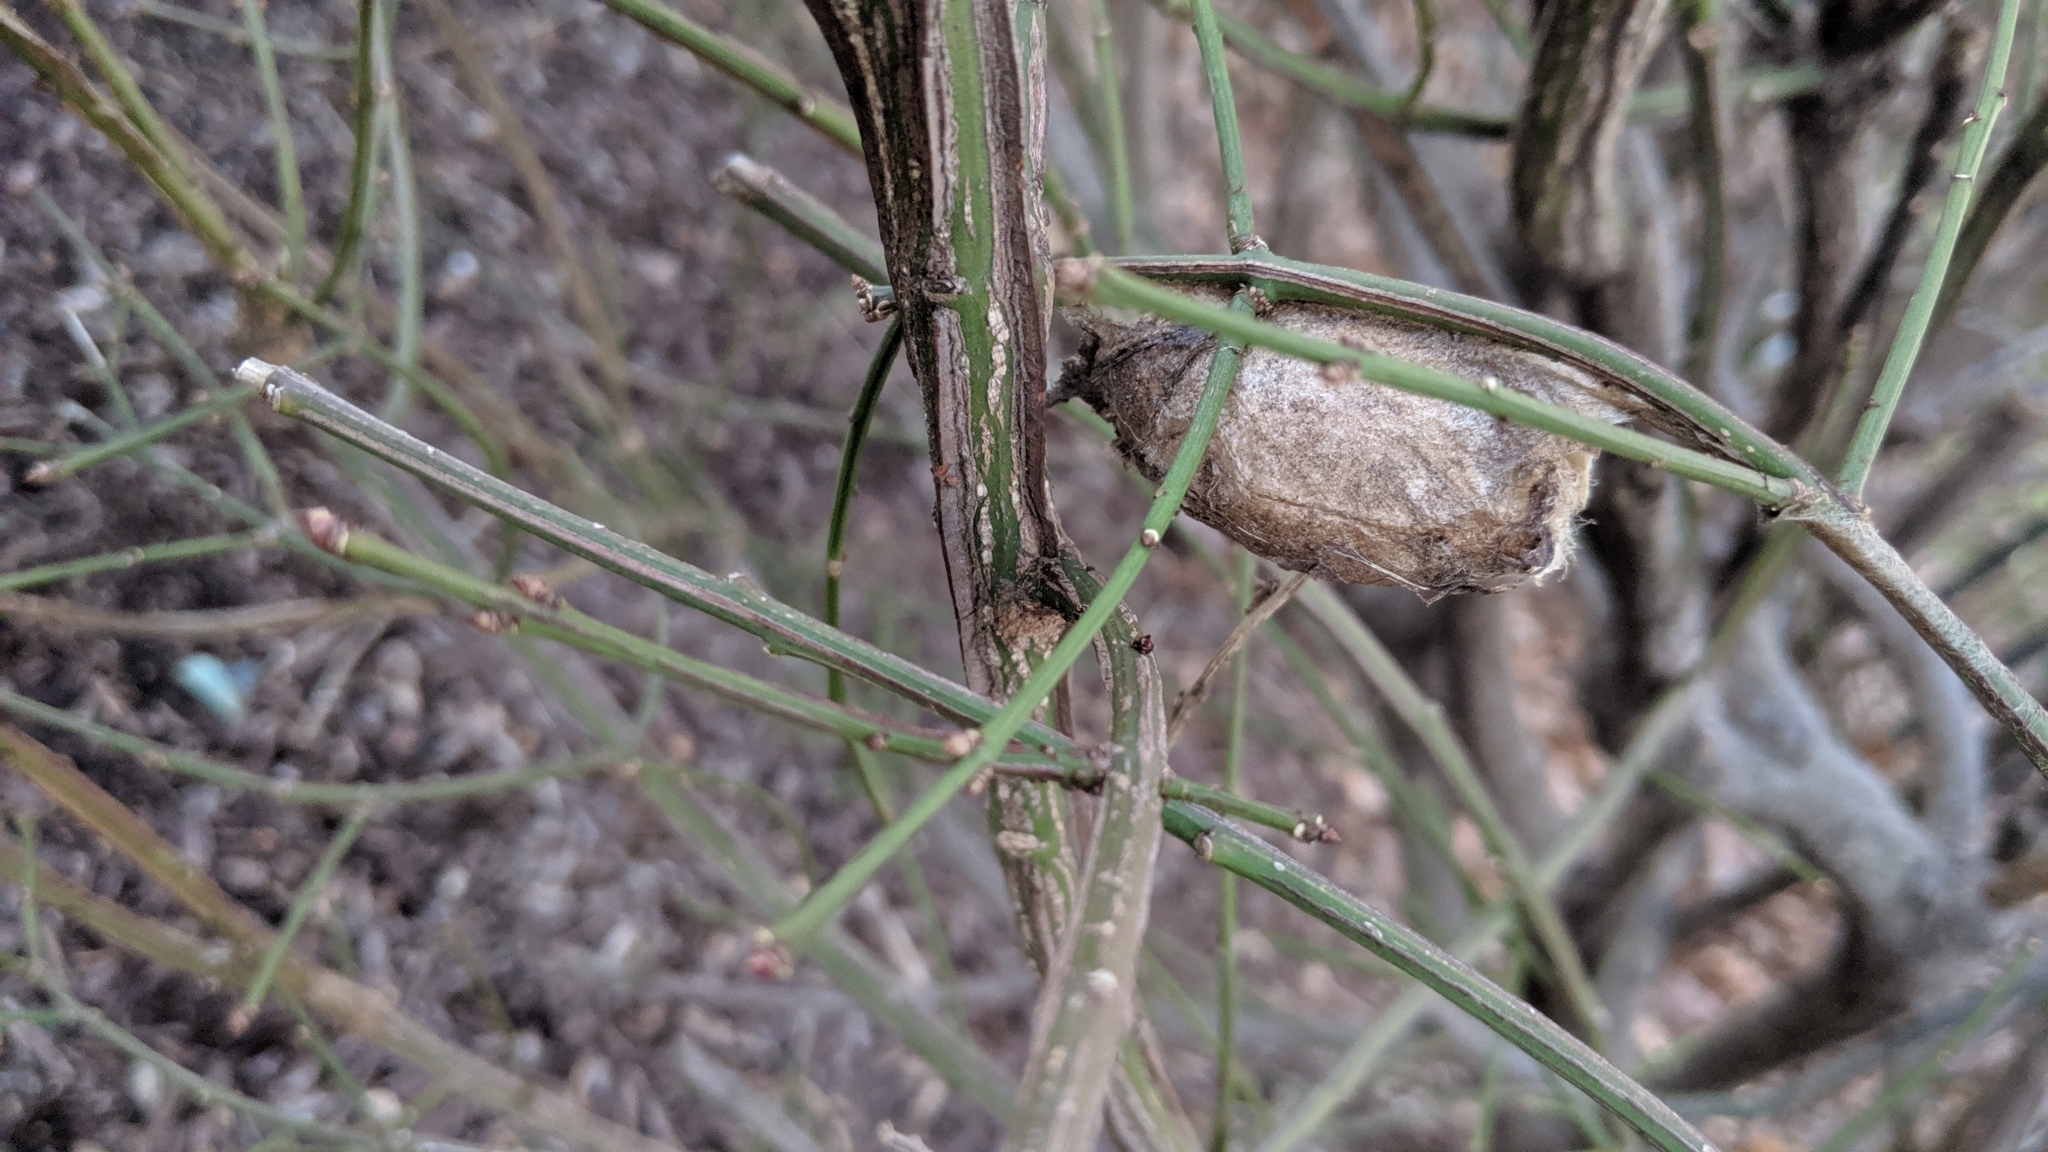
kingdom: Animalia
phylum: Arthropoda
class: Insecta
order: Lepidoptera
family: Saturniidae
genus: Antheraea
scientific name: Antheraea polyphemus
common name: Polyphemus moth
